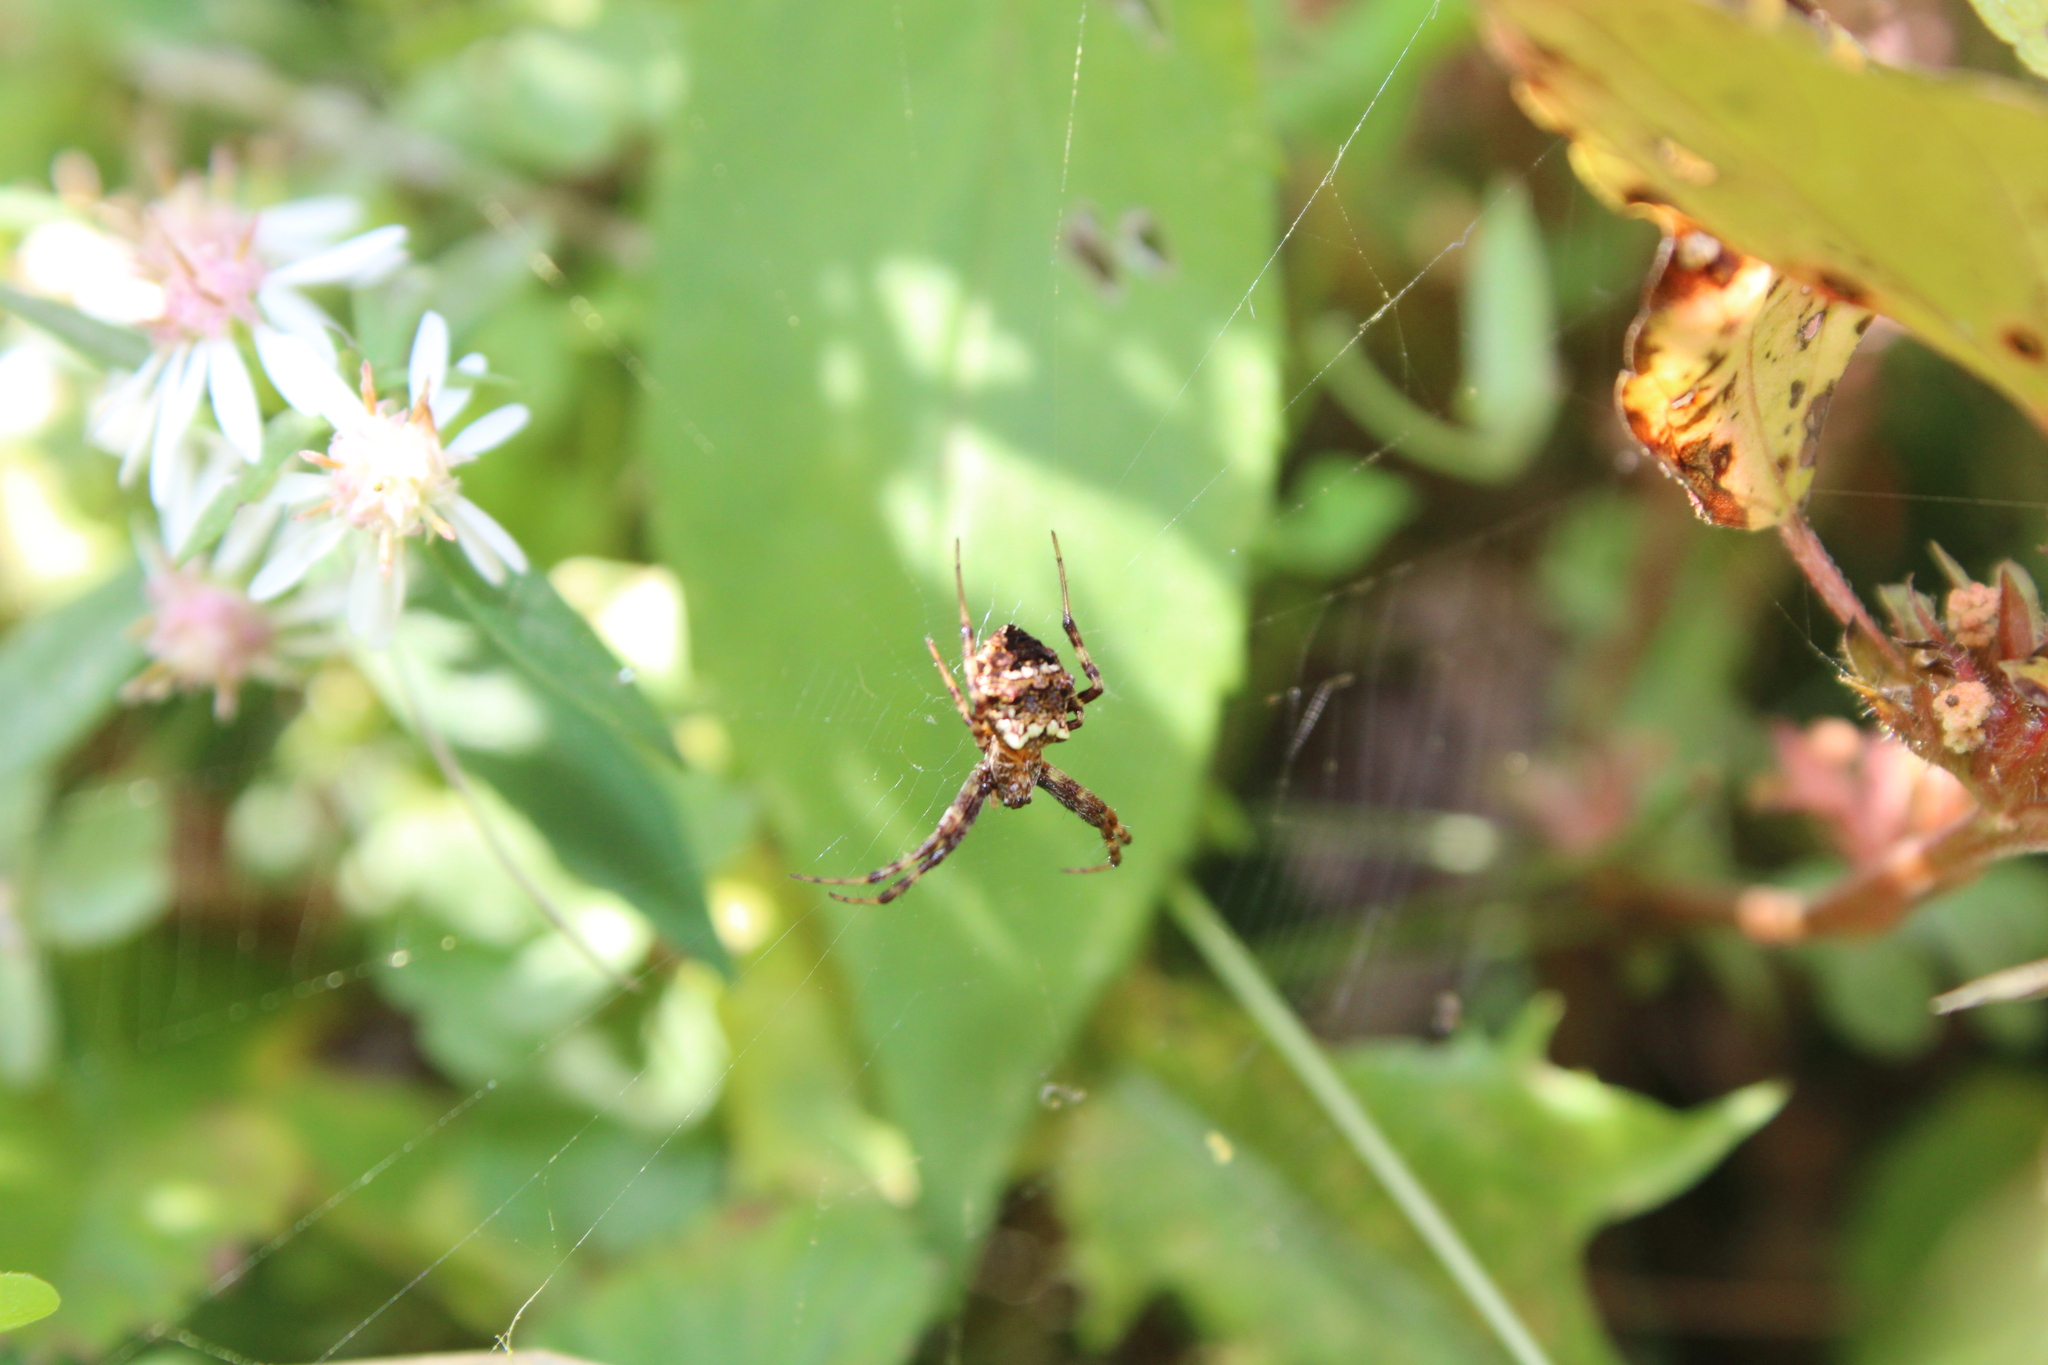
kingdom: Animalia
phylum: Arthropoda
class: Arachnida
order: Araneae
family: Araneidae
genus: Gea
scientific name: Gea heptagon
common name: Orb weavers
